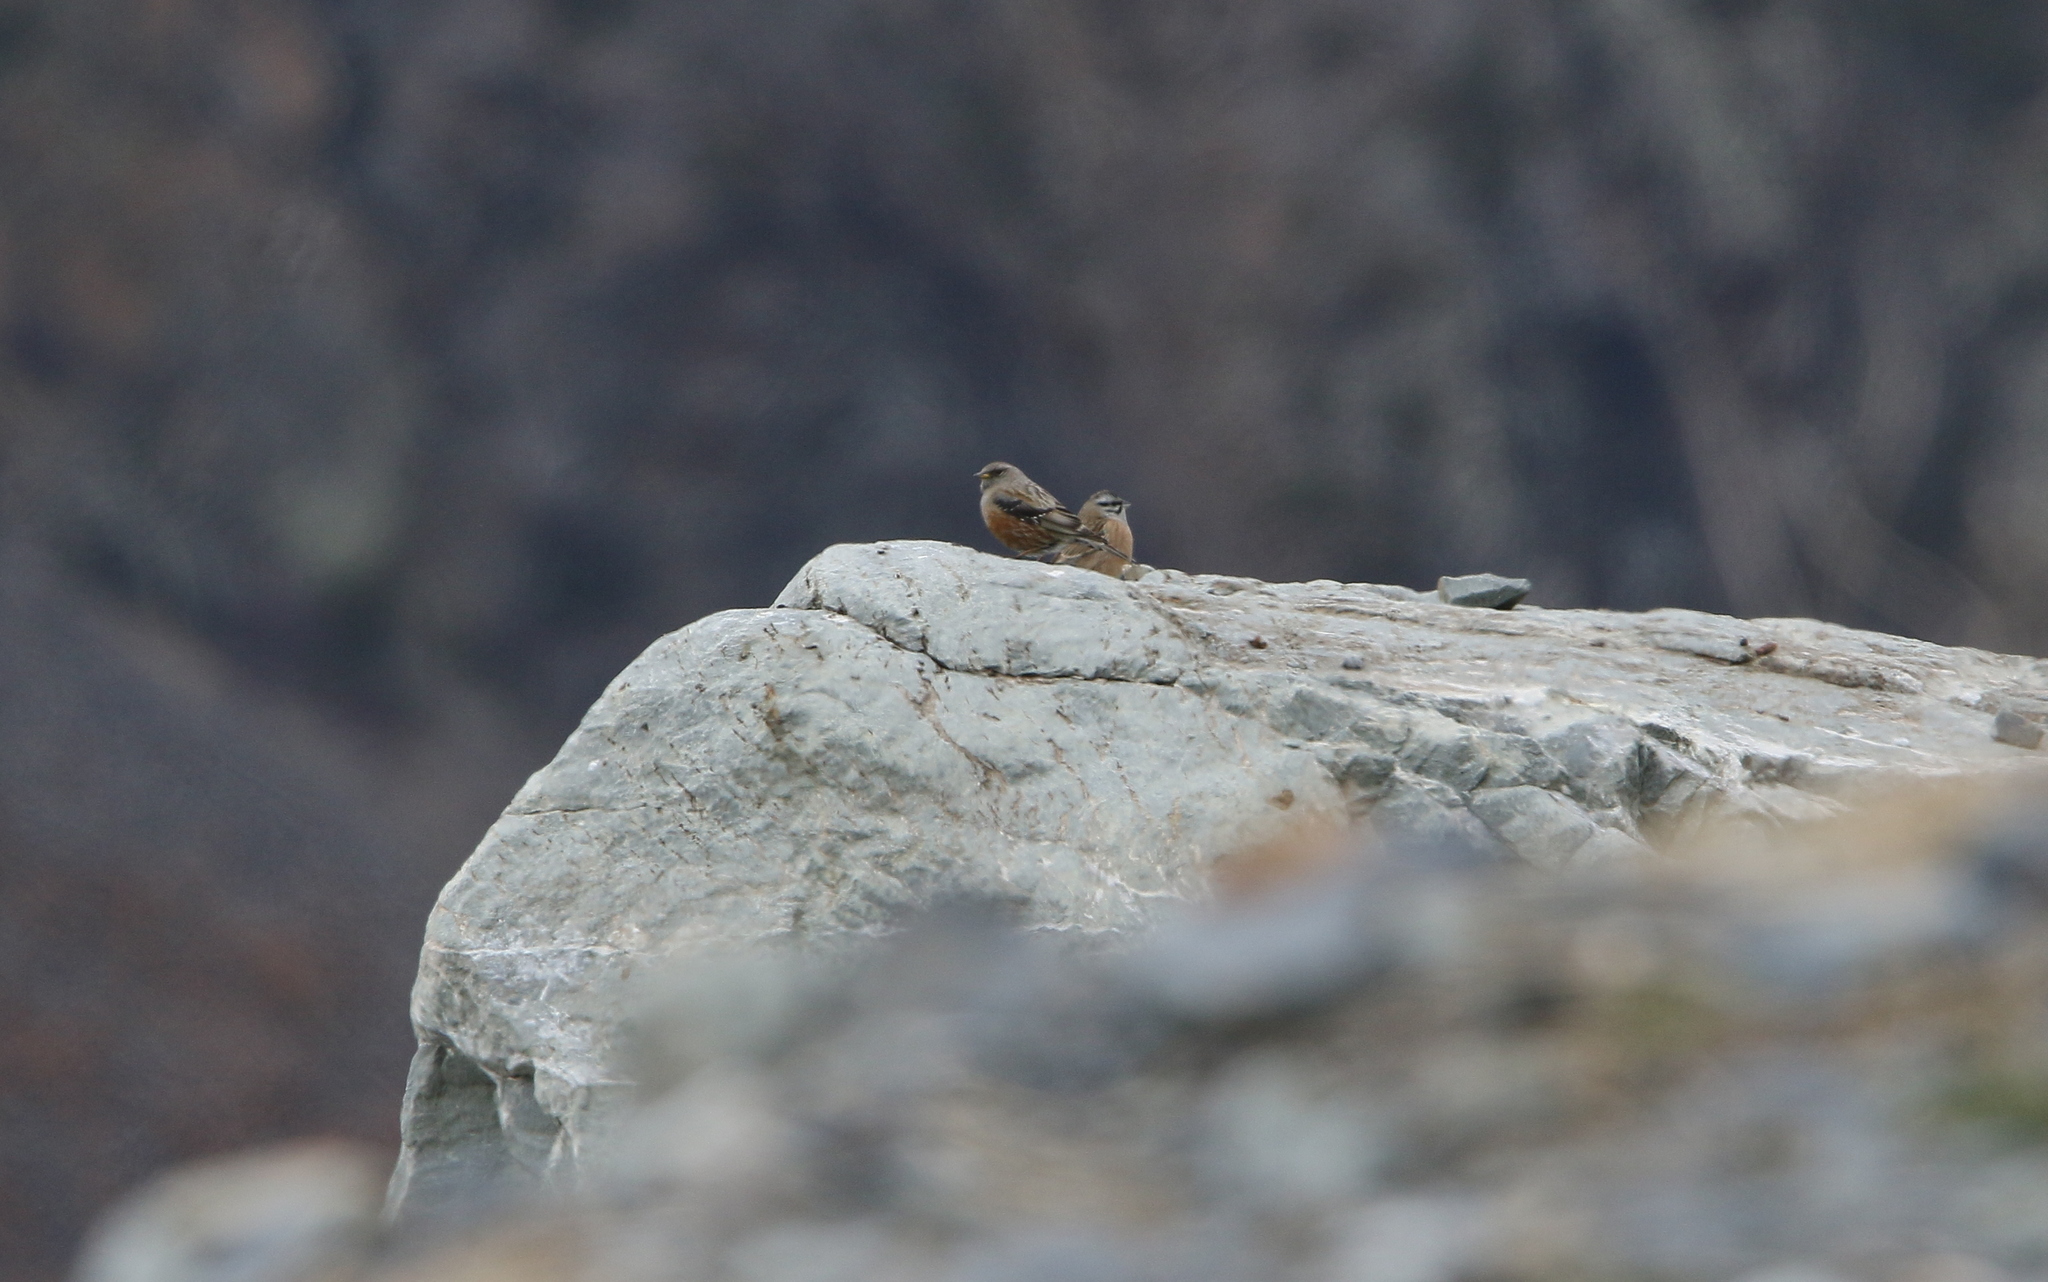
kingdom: Animalia
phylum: Chordata
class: Aves
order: Passeriformes
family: Prunellidae
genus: Prunella
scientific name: Prunella collaris
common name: Alpine accentor
